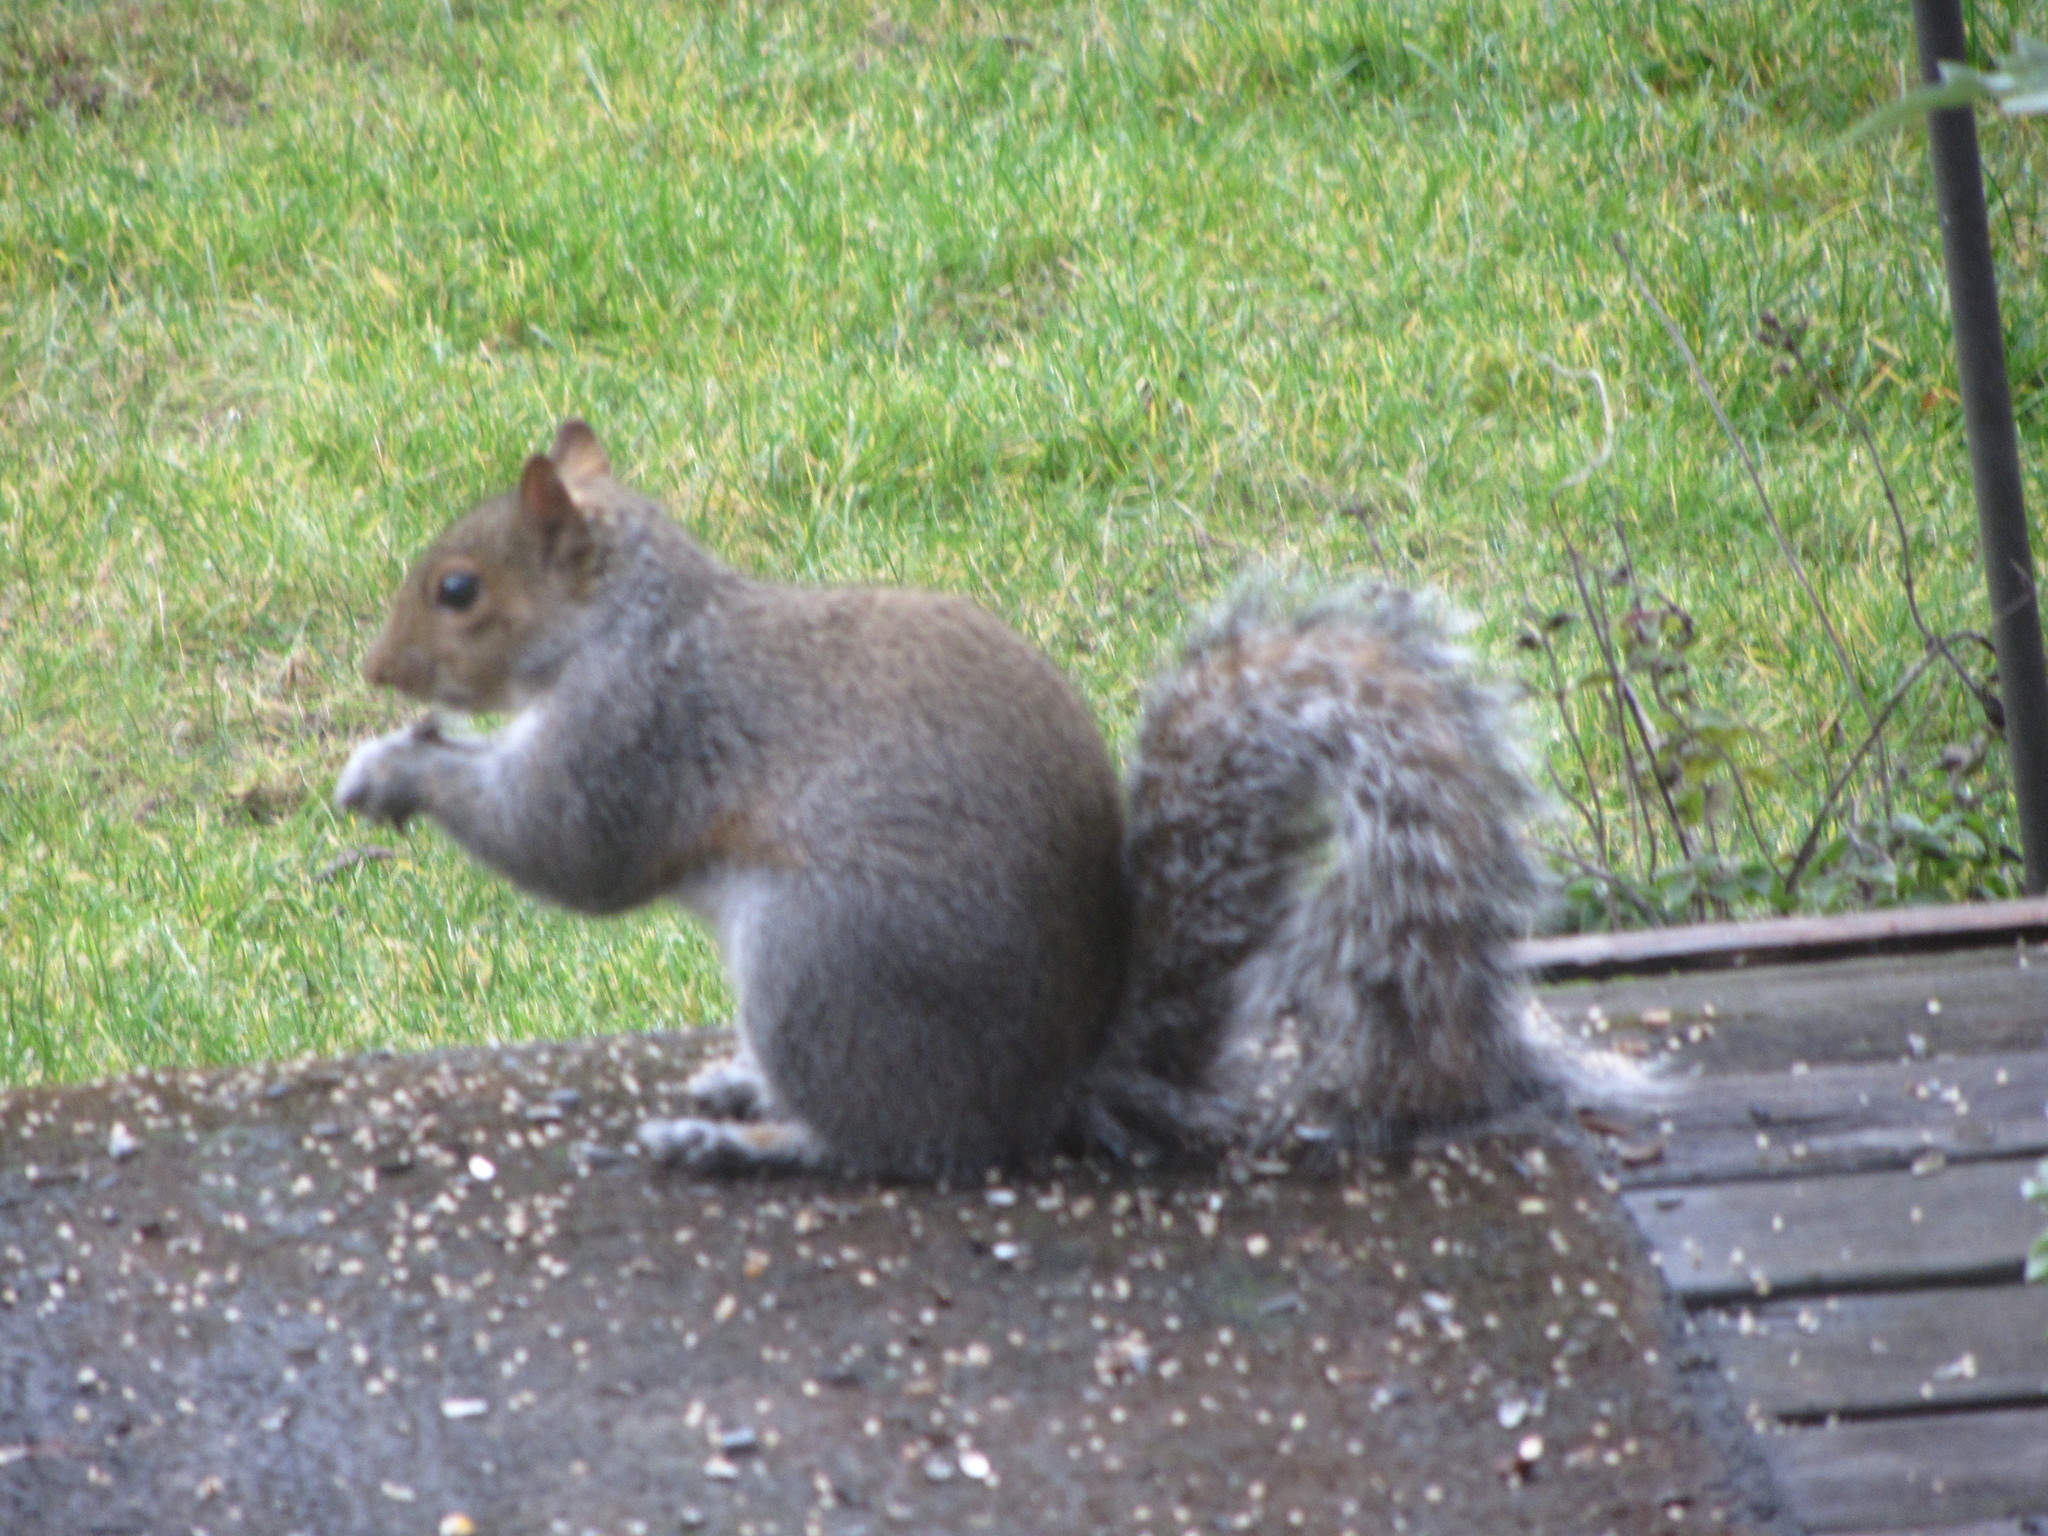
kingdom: Animalia
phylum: Chordata
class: Mammalia
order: Rodentia
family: Sciuridae
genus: Sciurus
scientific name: Sciurus carolinensis
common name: Eastern gray squirrel
